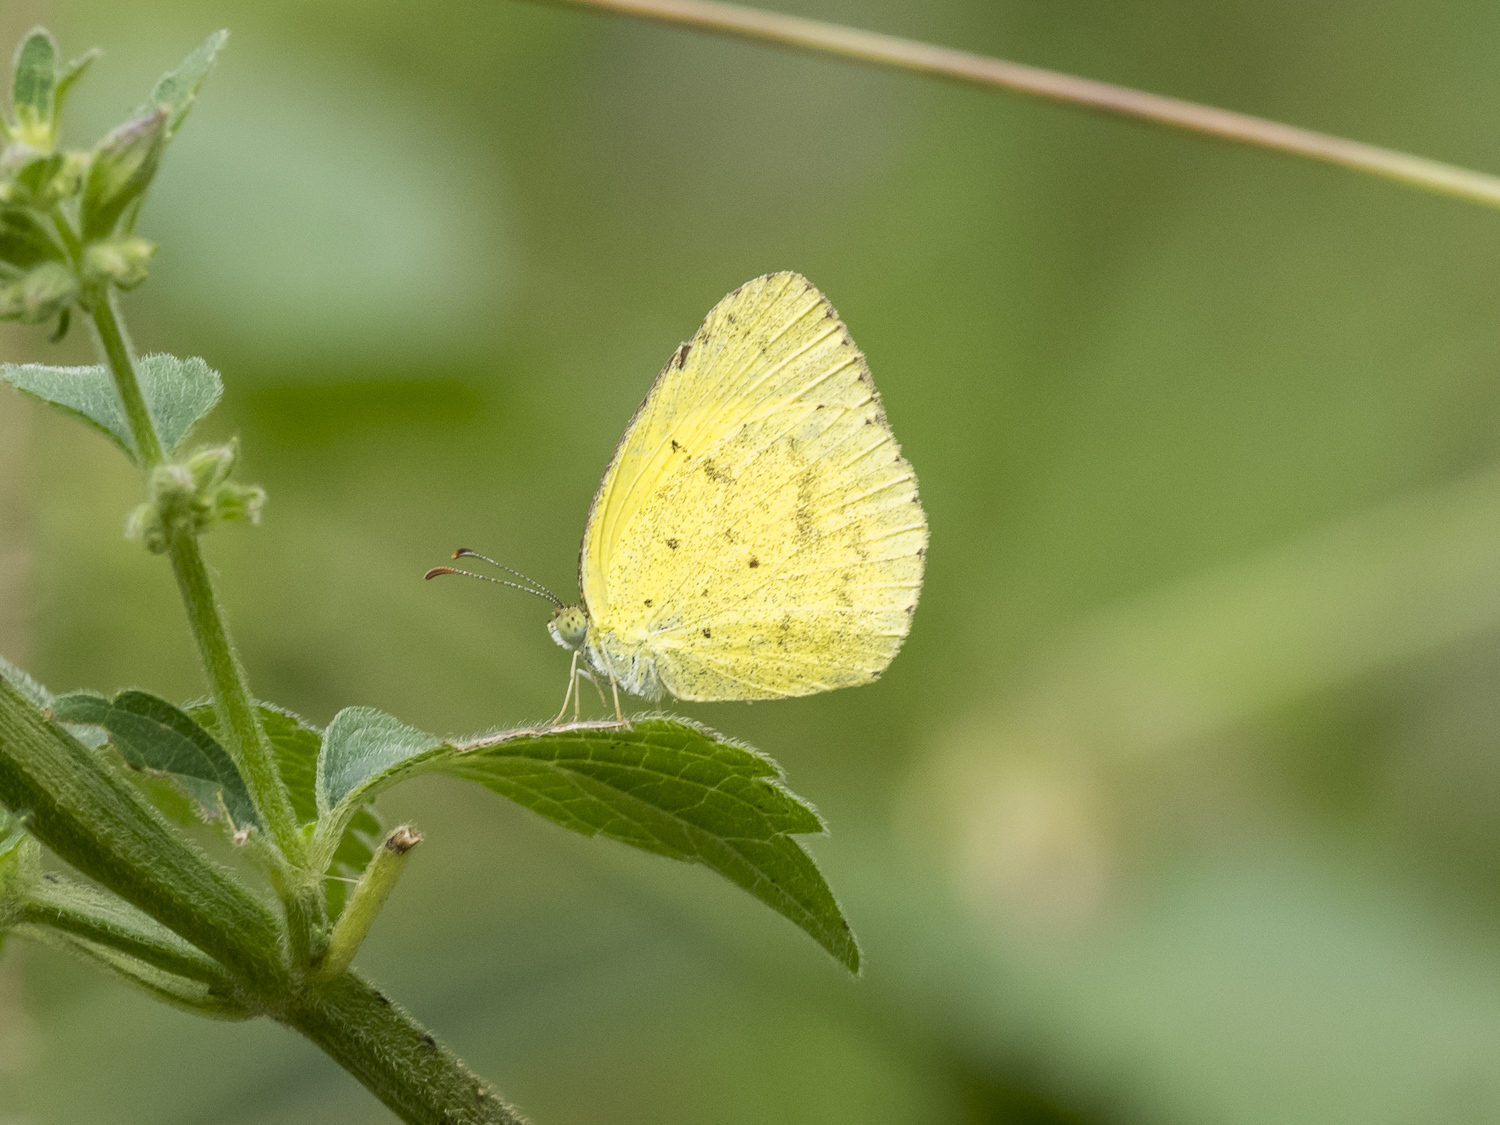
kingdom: Animalia
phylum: Arthropoda
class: Insecta
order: Lepidoptera
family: Pieridae
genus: Eurema
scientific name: Eurema brigitta
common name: Small grass yellow
